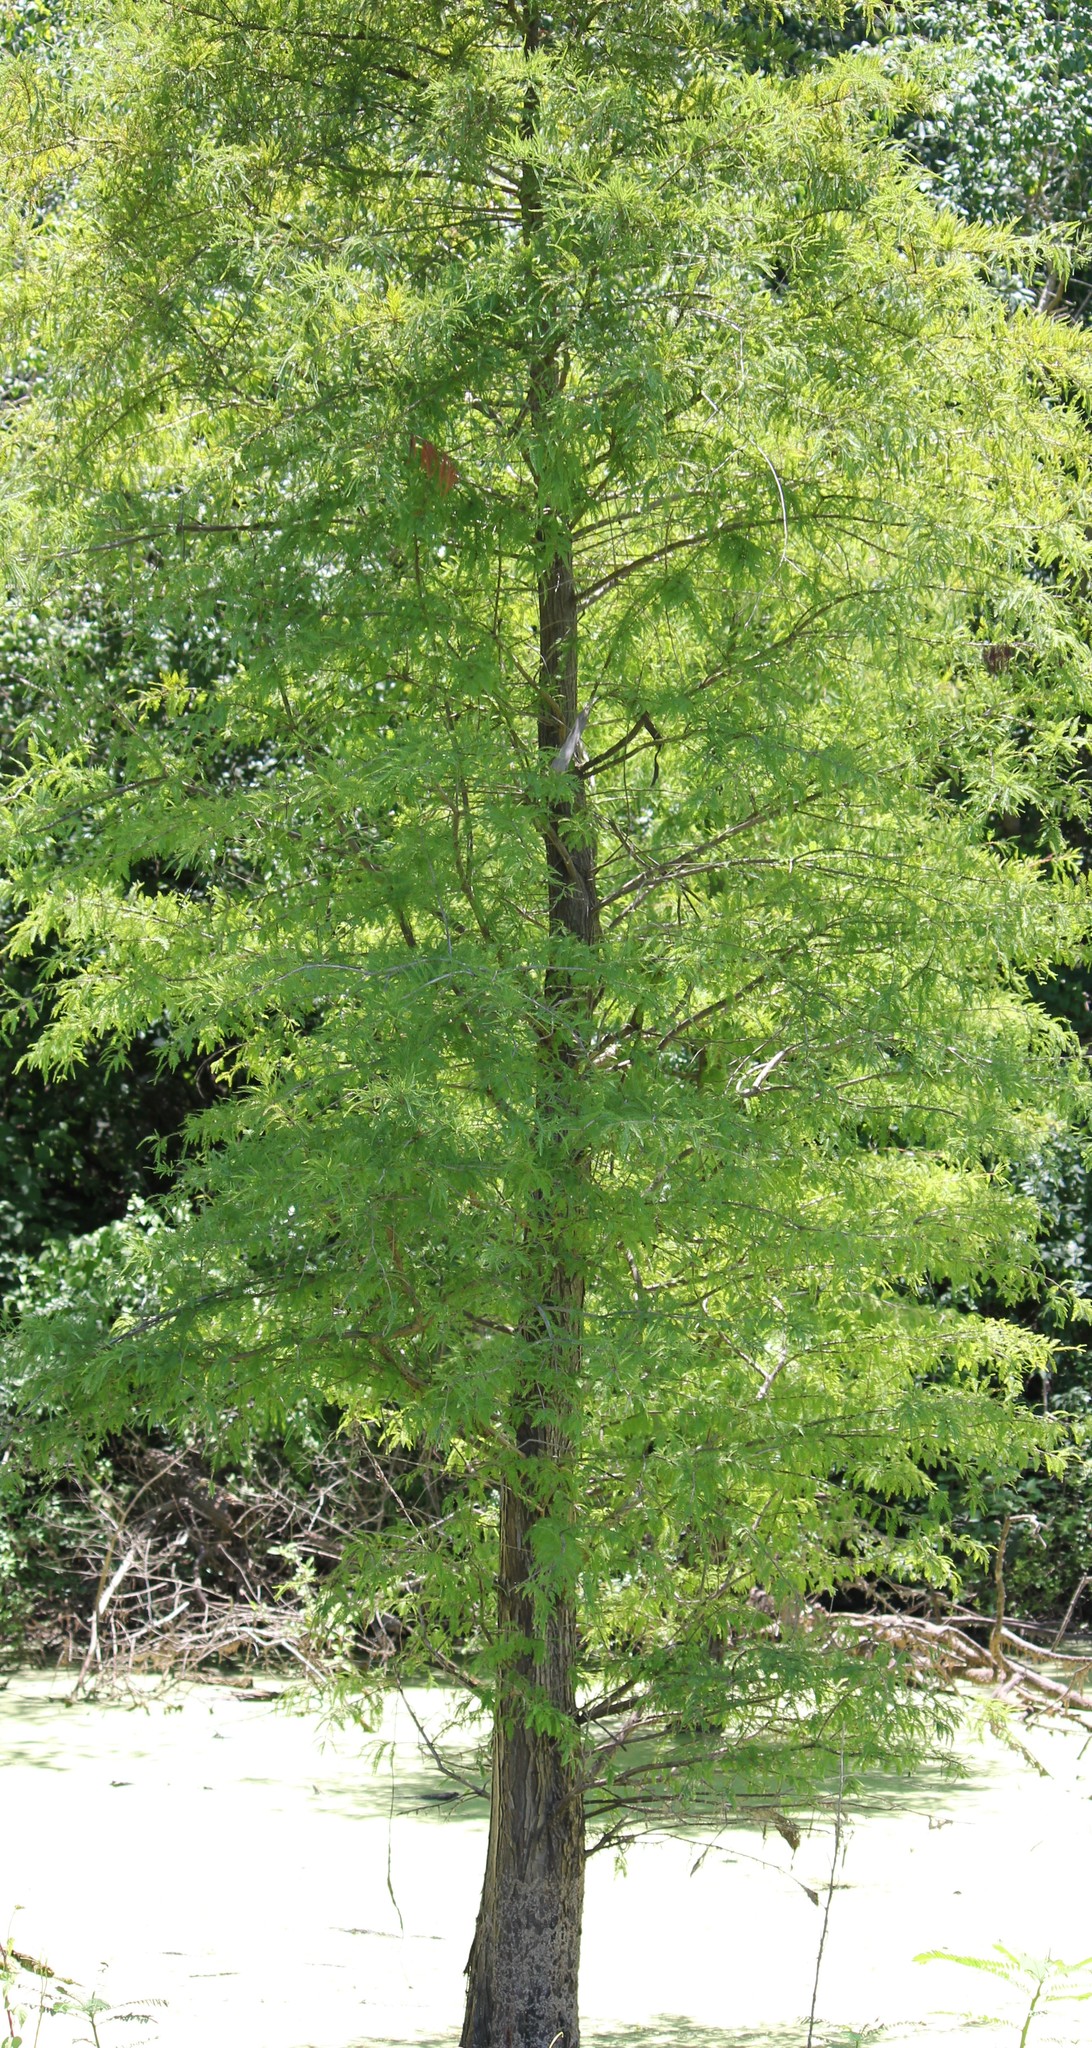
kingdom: Plantae
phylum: Tracheophyta
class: Pinopsida
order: Pinales
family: Cupressaceae
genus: Taxodium
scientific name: Taxodium distichum
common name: Bald cypress
